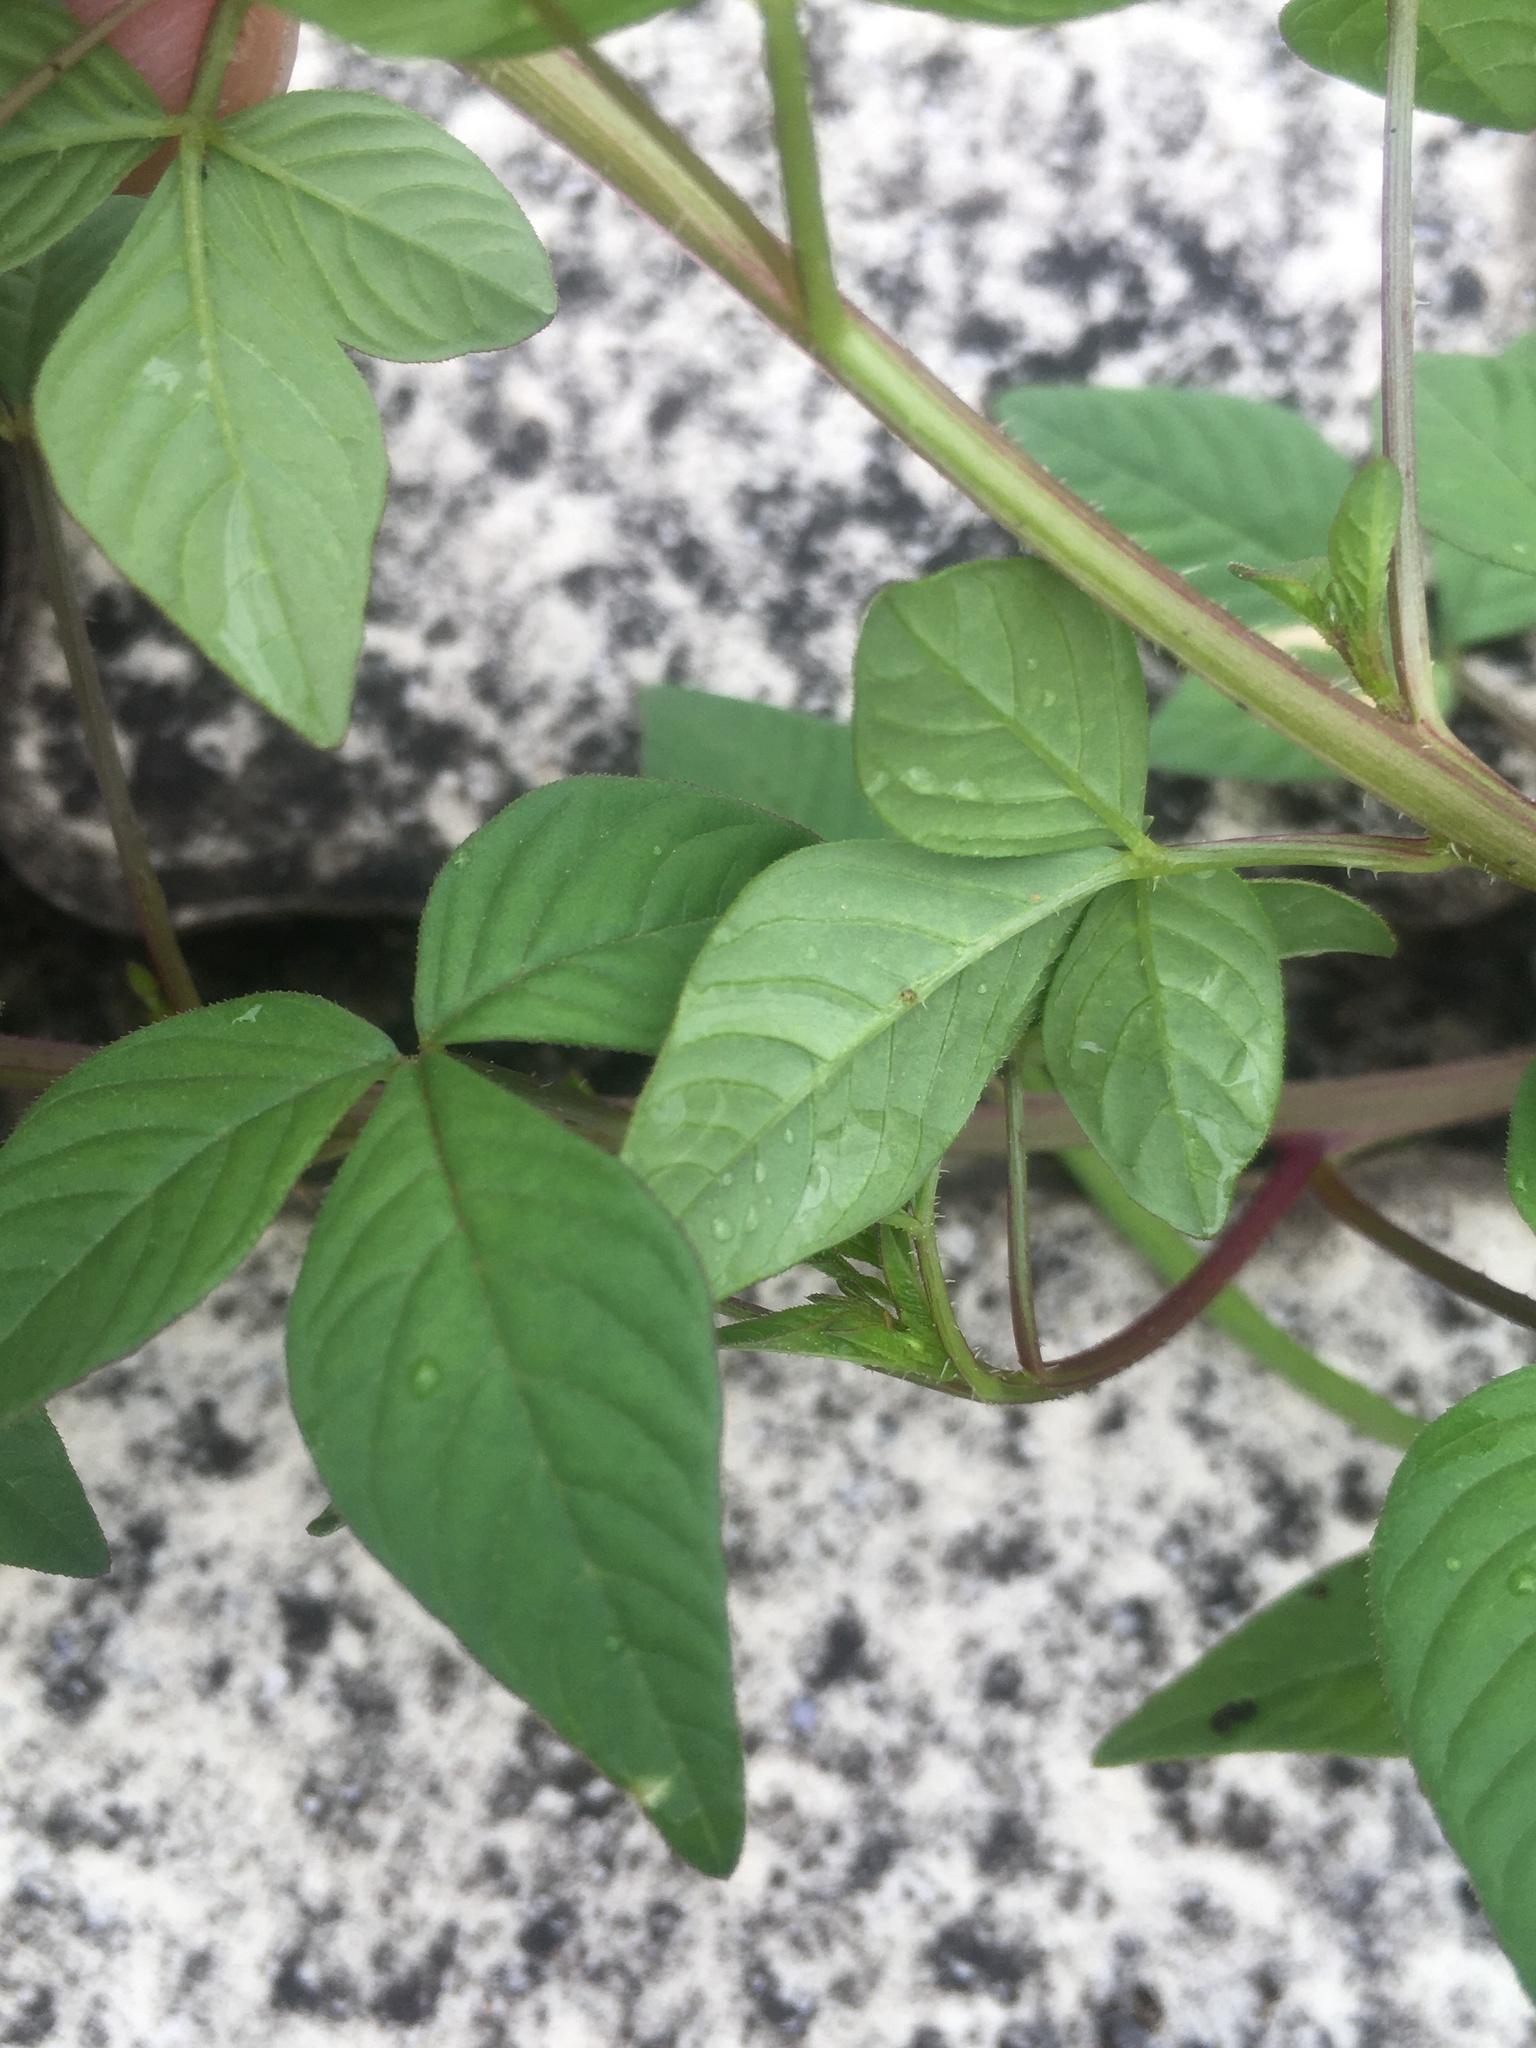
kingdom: Plantae
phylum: Tracheophyta
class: Magnoliopsida
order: Brassicales
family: Cleomaceae
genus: Sieruela
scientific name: Sieruela rutidosperma
